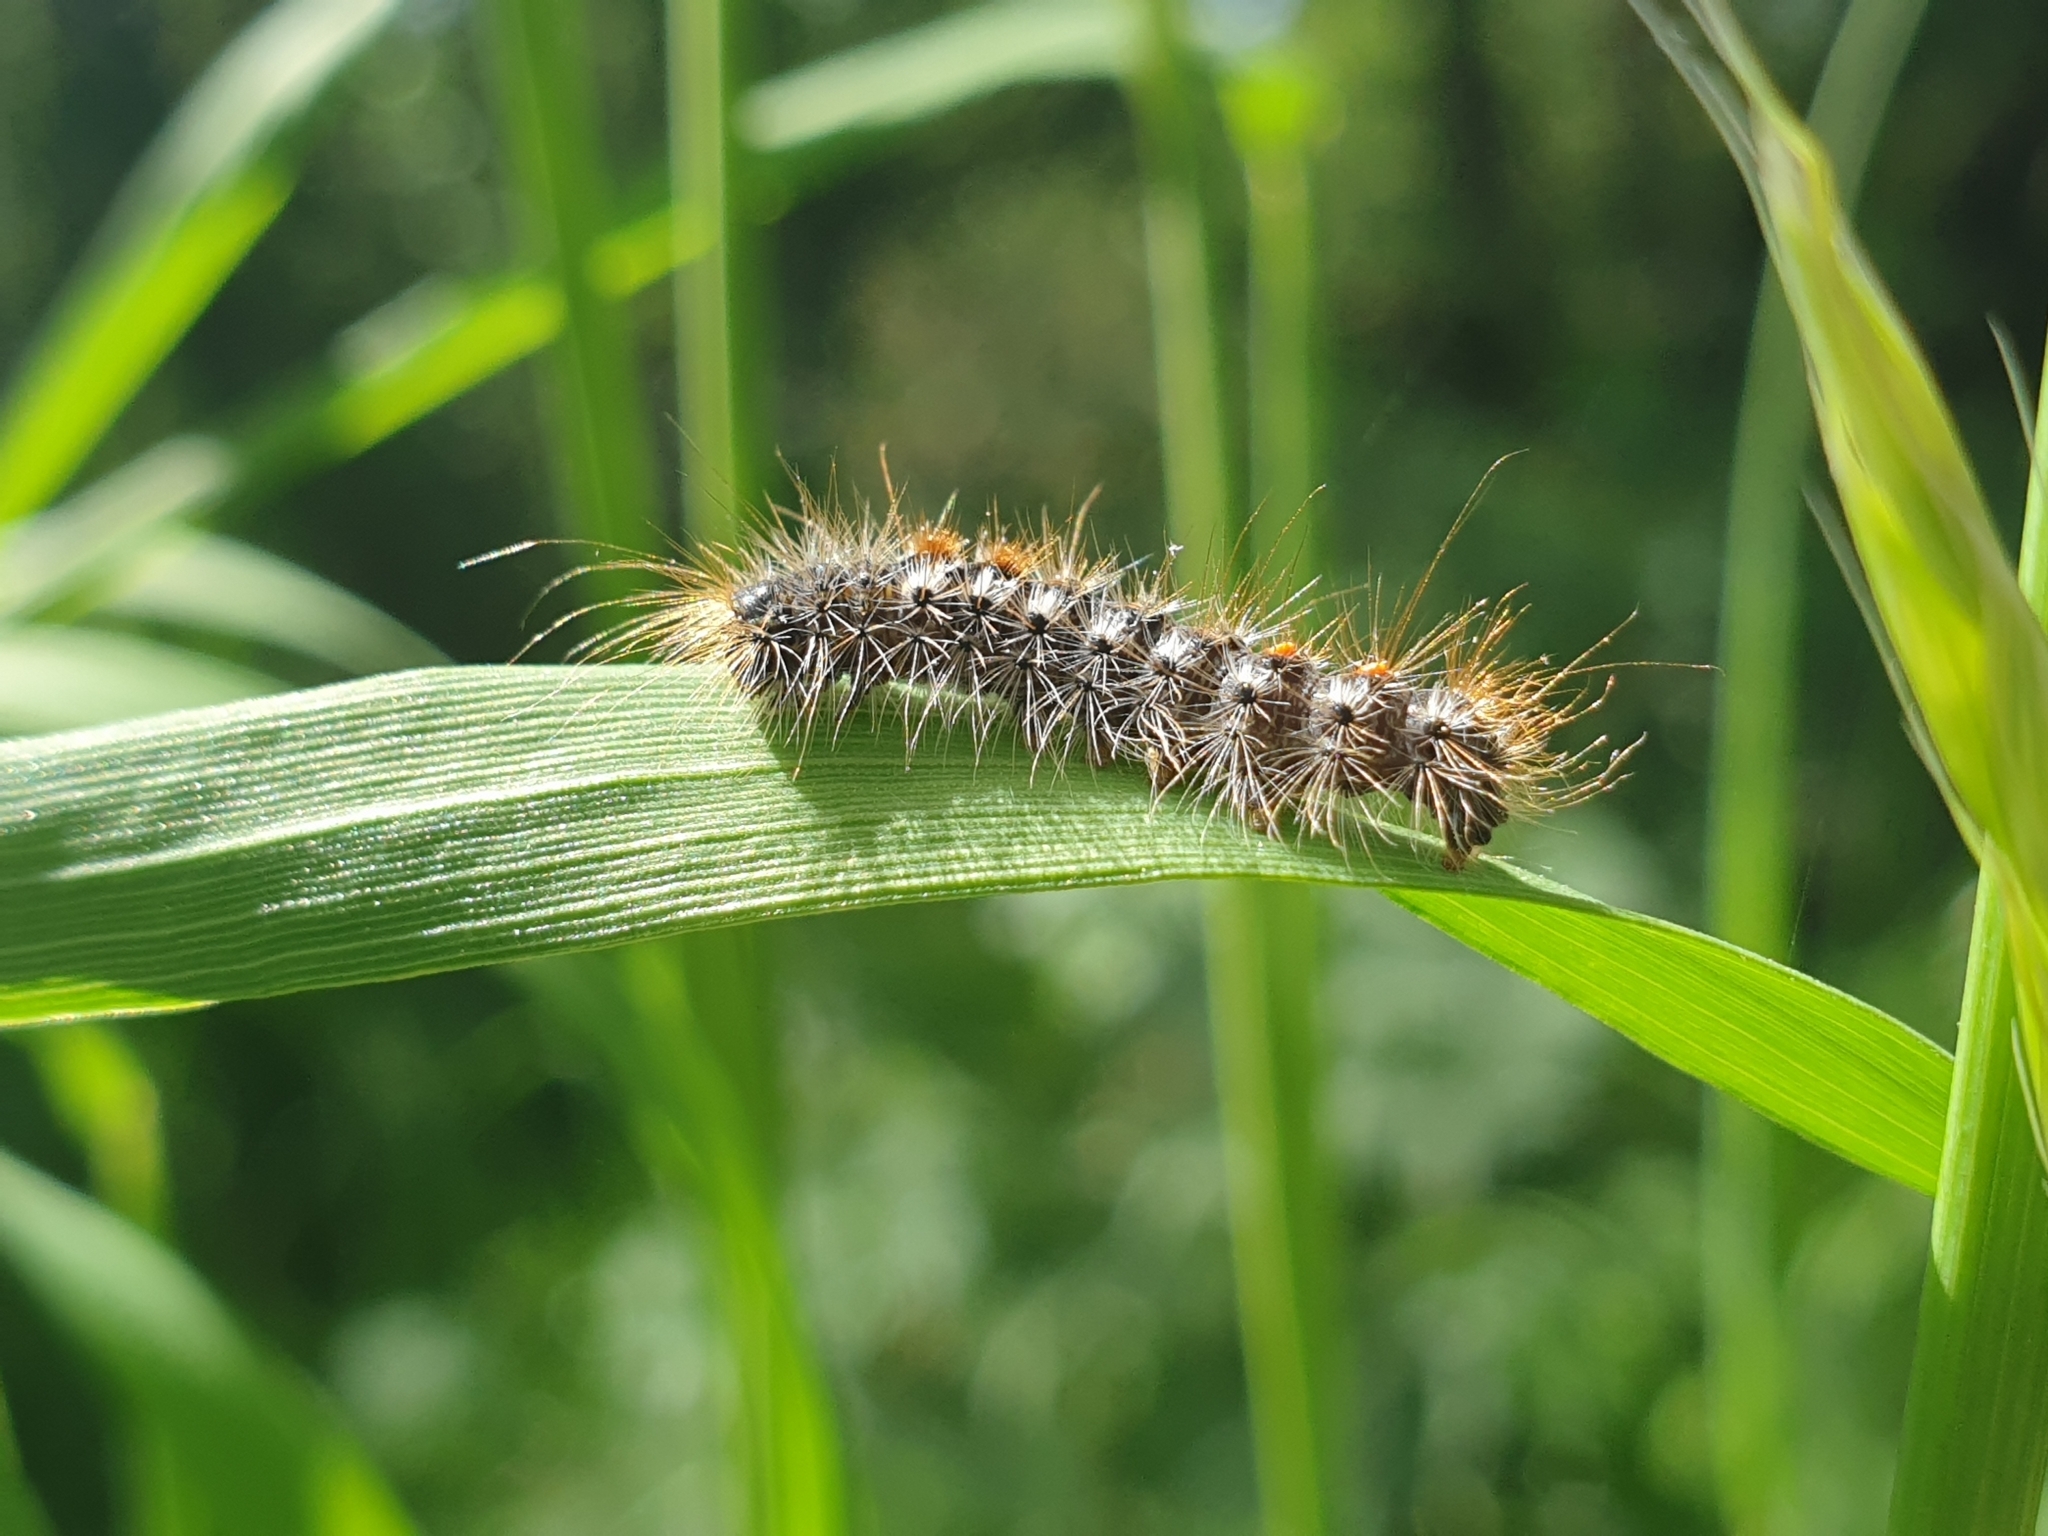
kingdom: Animalia
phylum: Arthropoda
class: Insecta
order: Lepidoptera
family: Erebidae
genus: Euproctis
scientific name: Euproctis chrysorrhoea
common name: Brown-tail
